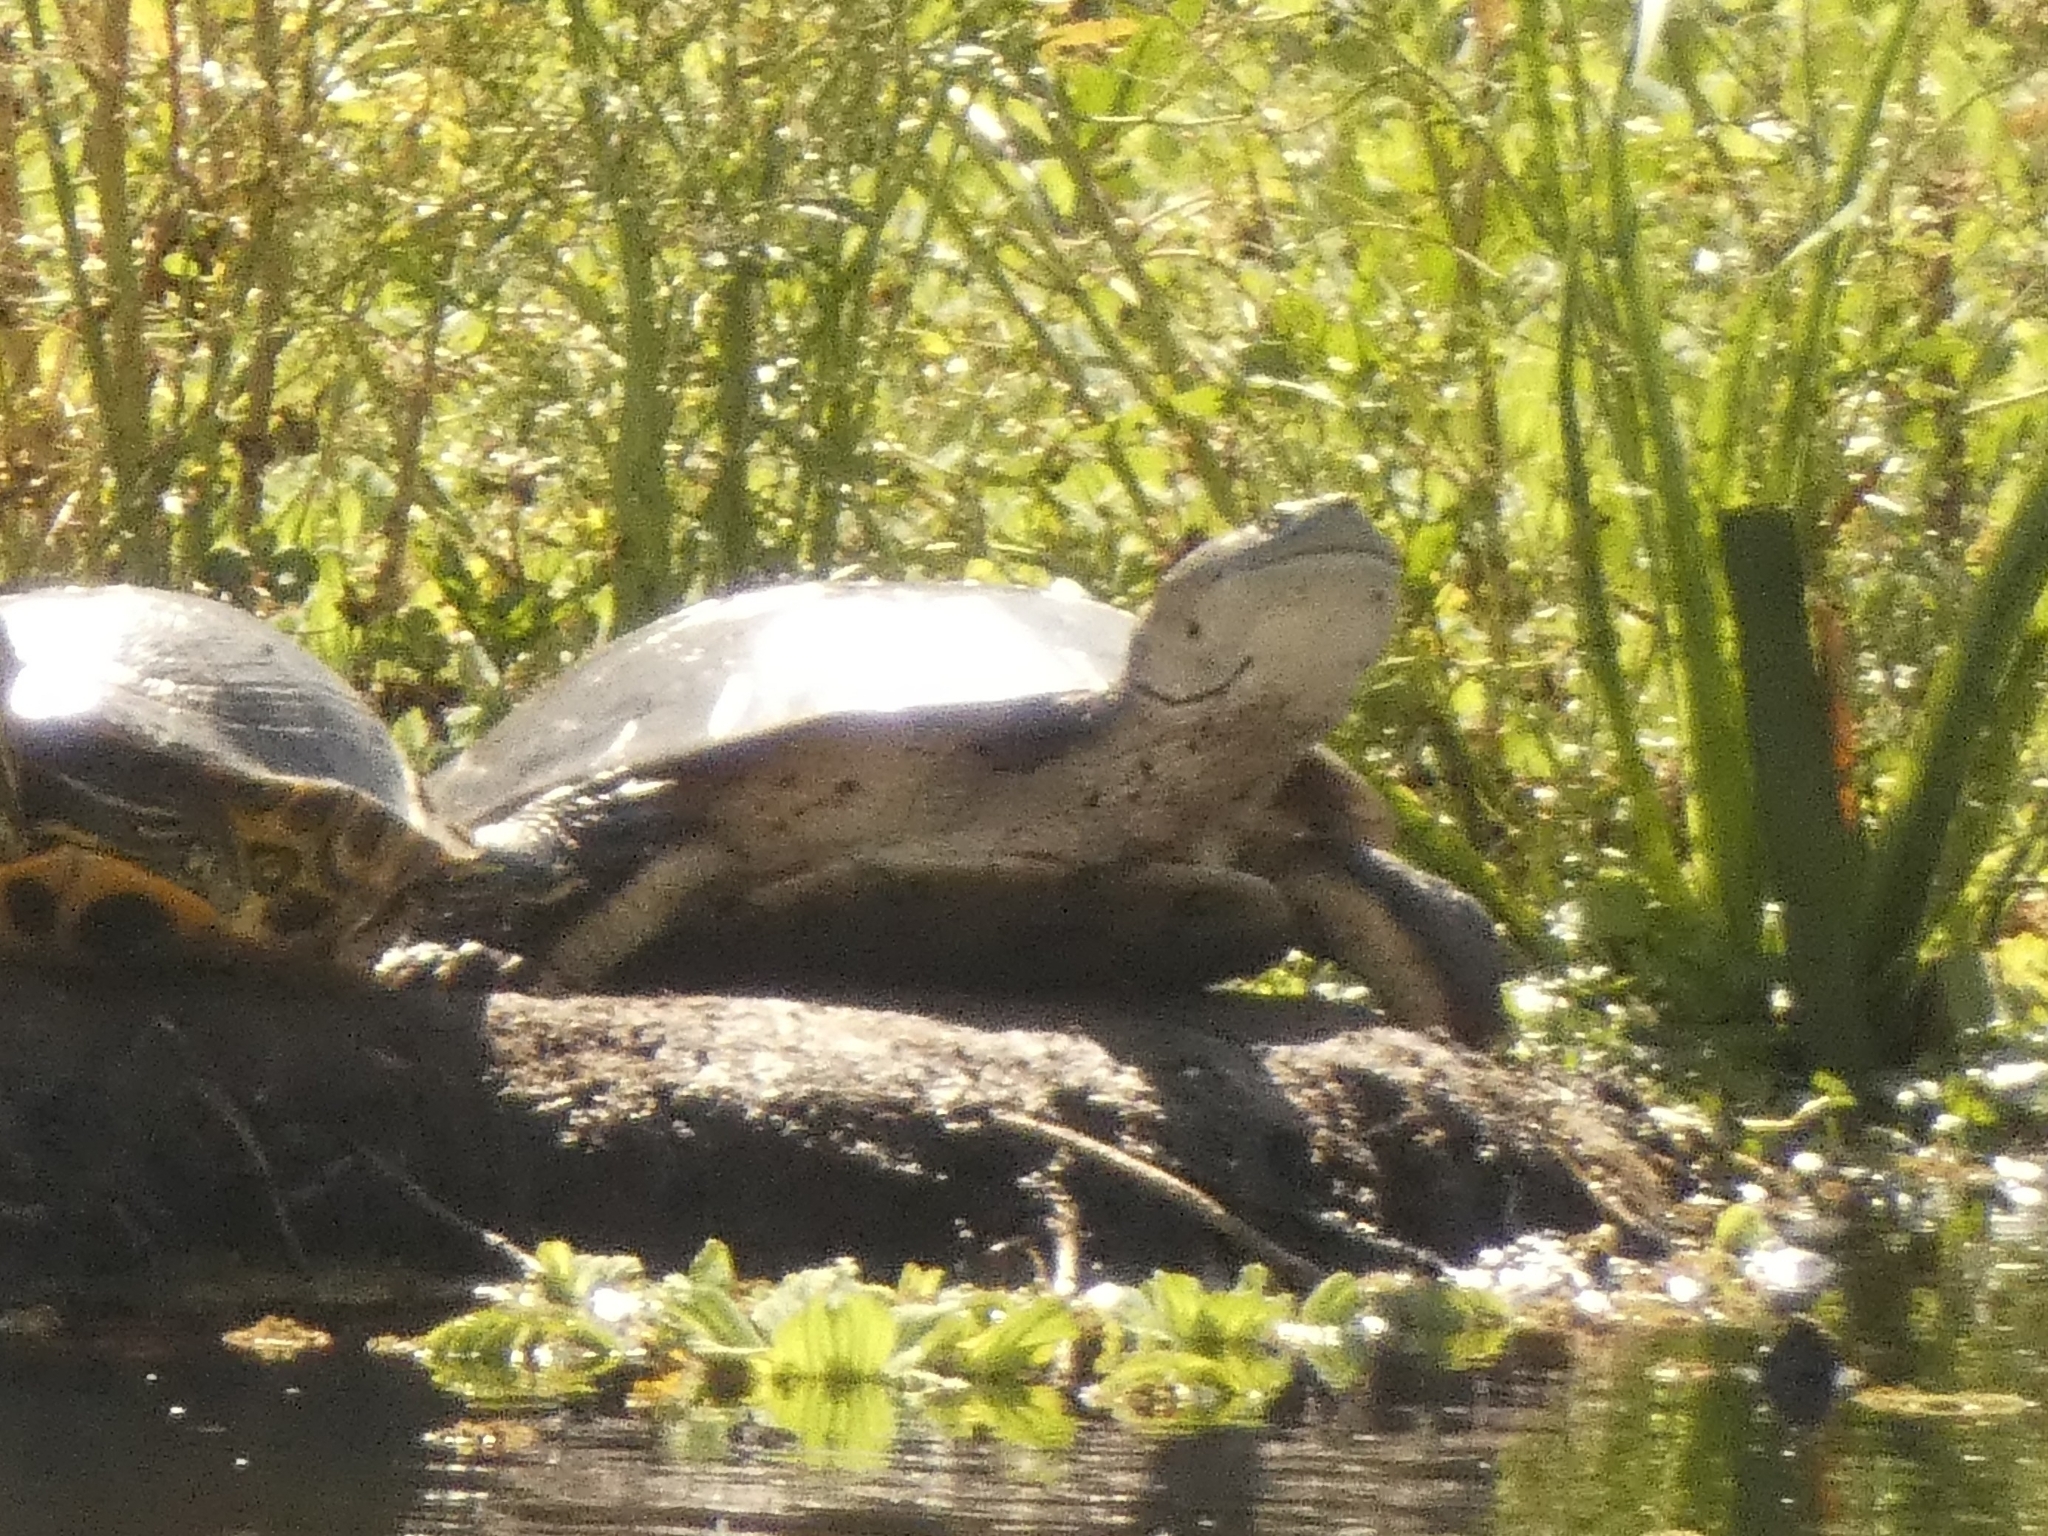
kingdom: Animalia
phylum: Chordata
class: Testudines
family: Chelidae
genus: Phrynops
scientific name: Phrynops hilarii
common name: Side-necked turtle of saint hillaire
